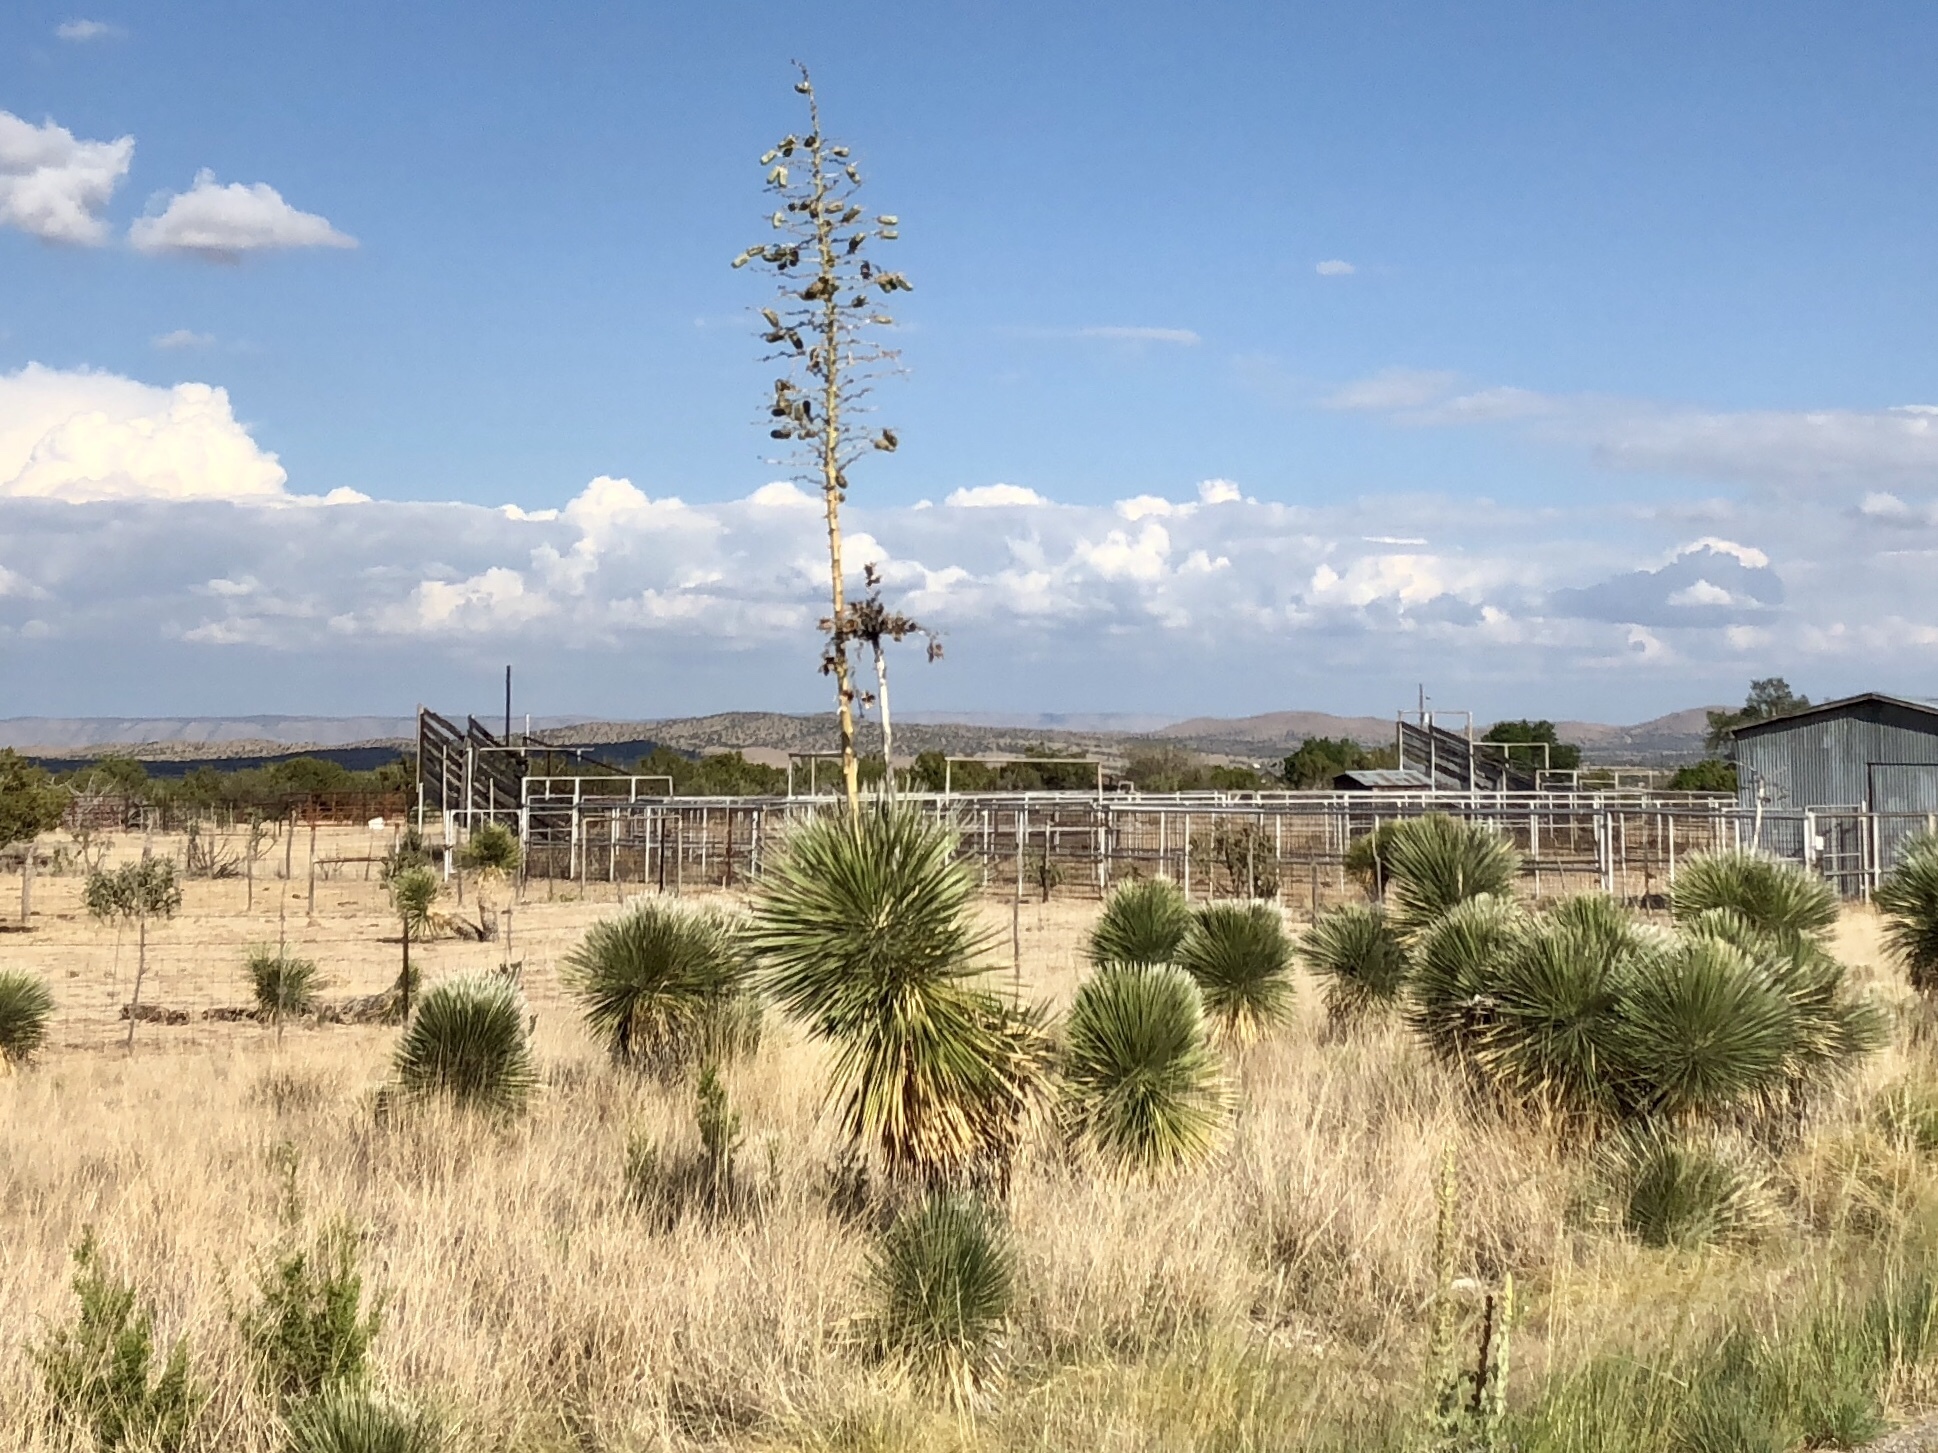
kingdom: Plantae
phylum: Tracheophyta
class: Liliopsida
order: Asparagales
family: Asparagaceae
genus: Yucca
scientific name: Yucca elata
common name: Palmella
